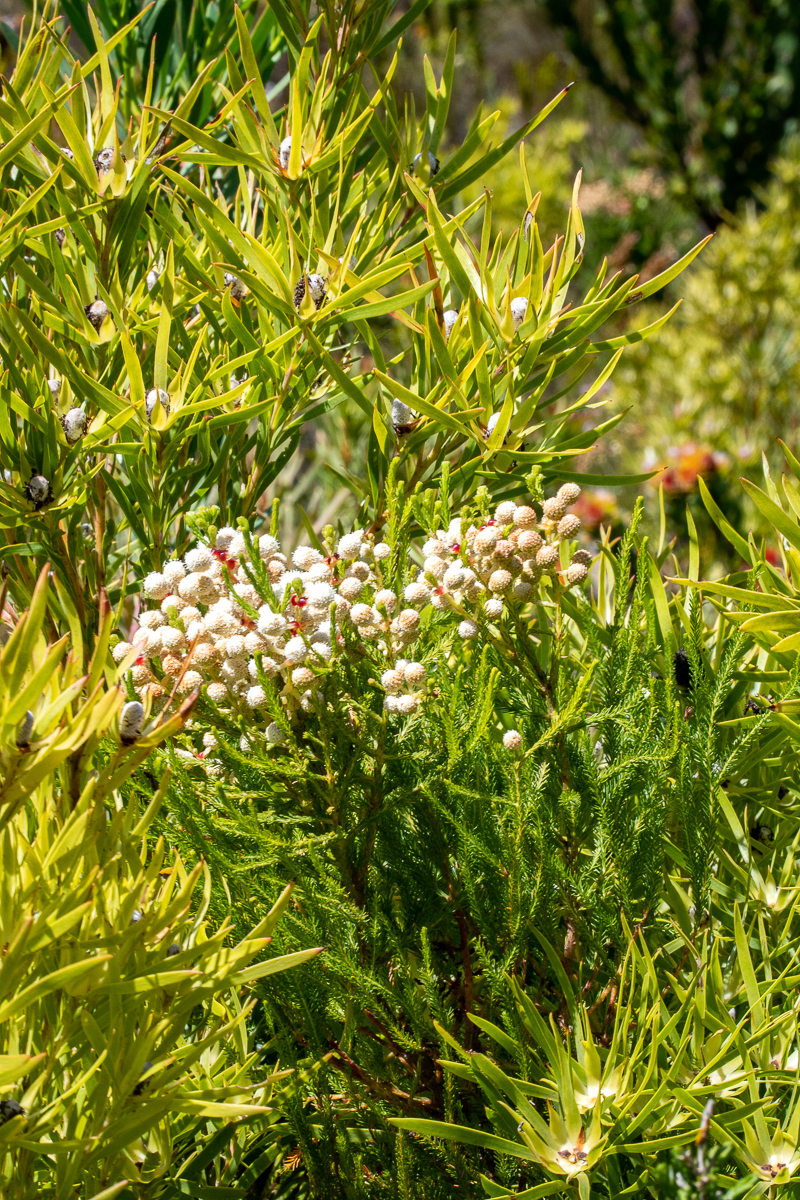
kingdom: Plantae
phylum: Tracheophyta
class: Magnoliopsida
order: Bruniales
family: Bruniaceae
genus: Berzelia
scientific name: Berzelia lanuginosa
